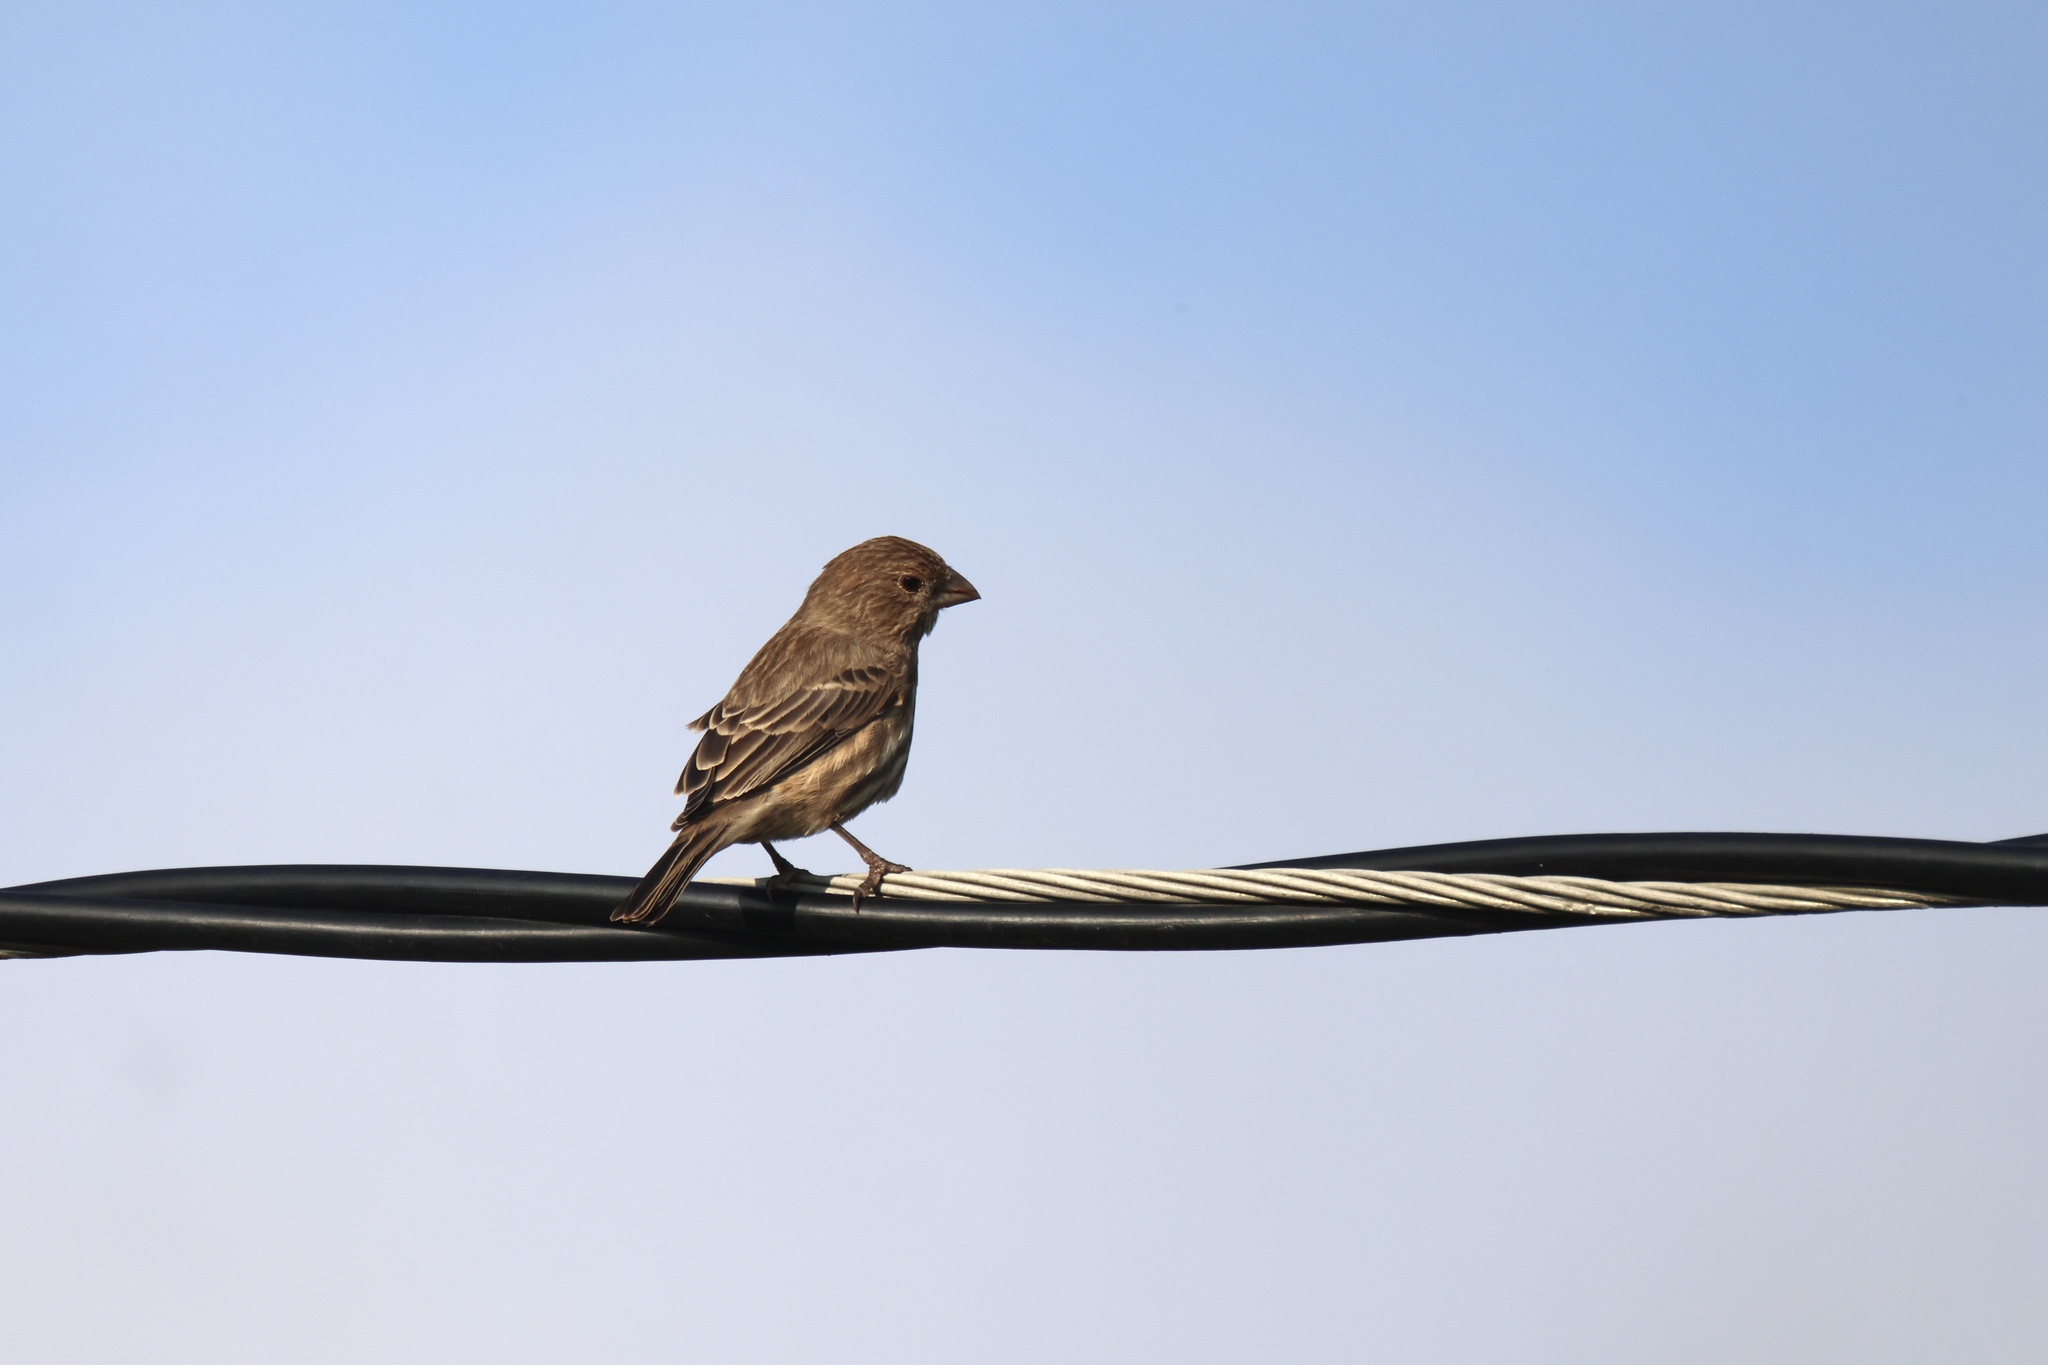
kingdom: Animalia
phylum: Chordata
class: Aves
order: Passeriformes
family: Fringillidae
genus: Haemorhous
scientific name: Haemorhous mexicanus
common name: House finch
